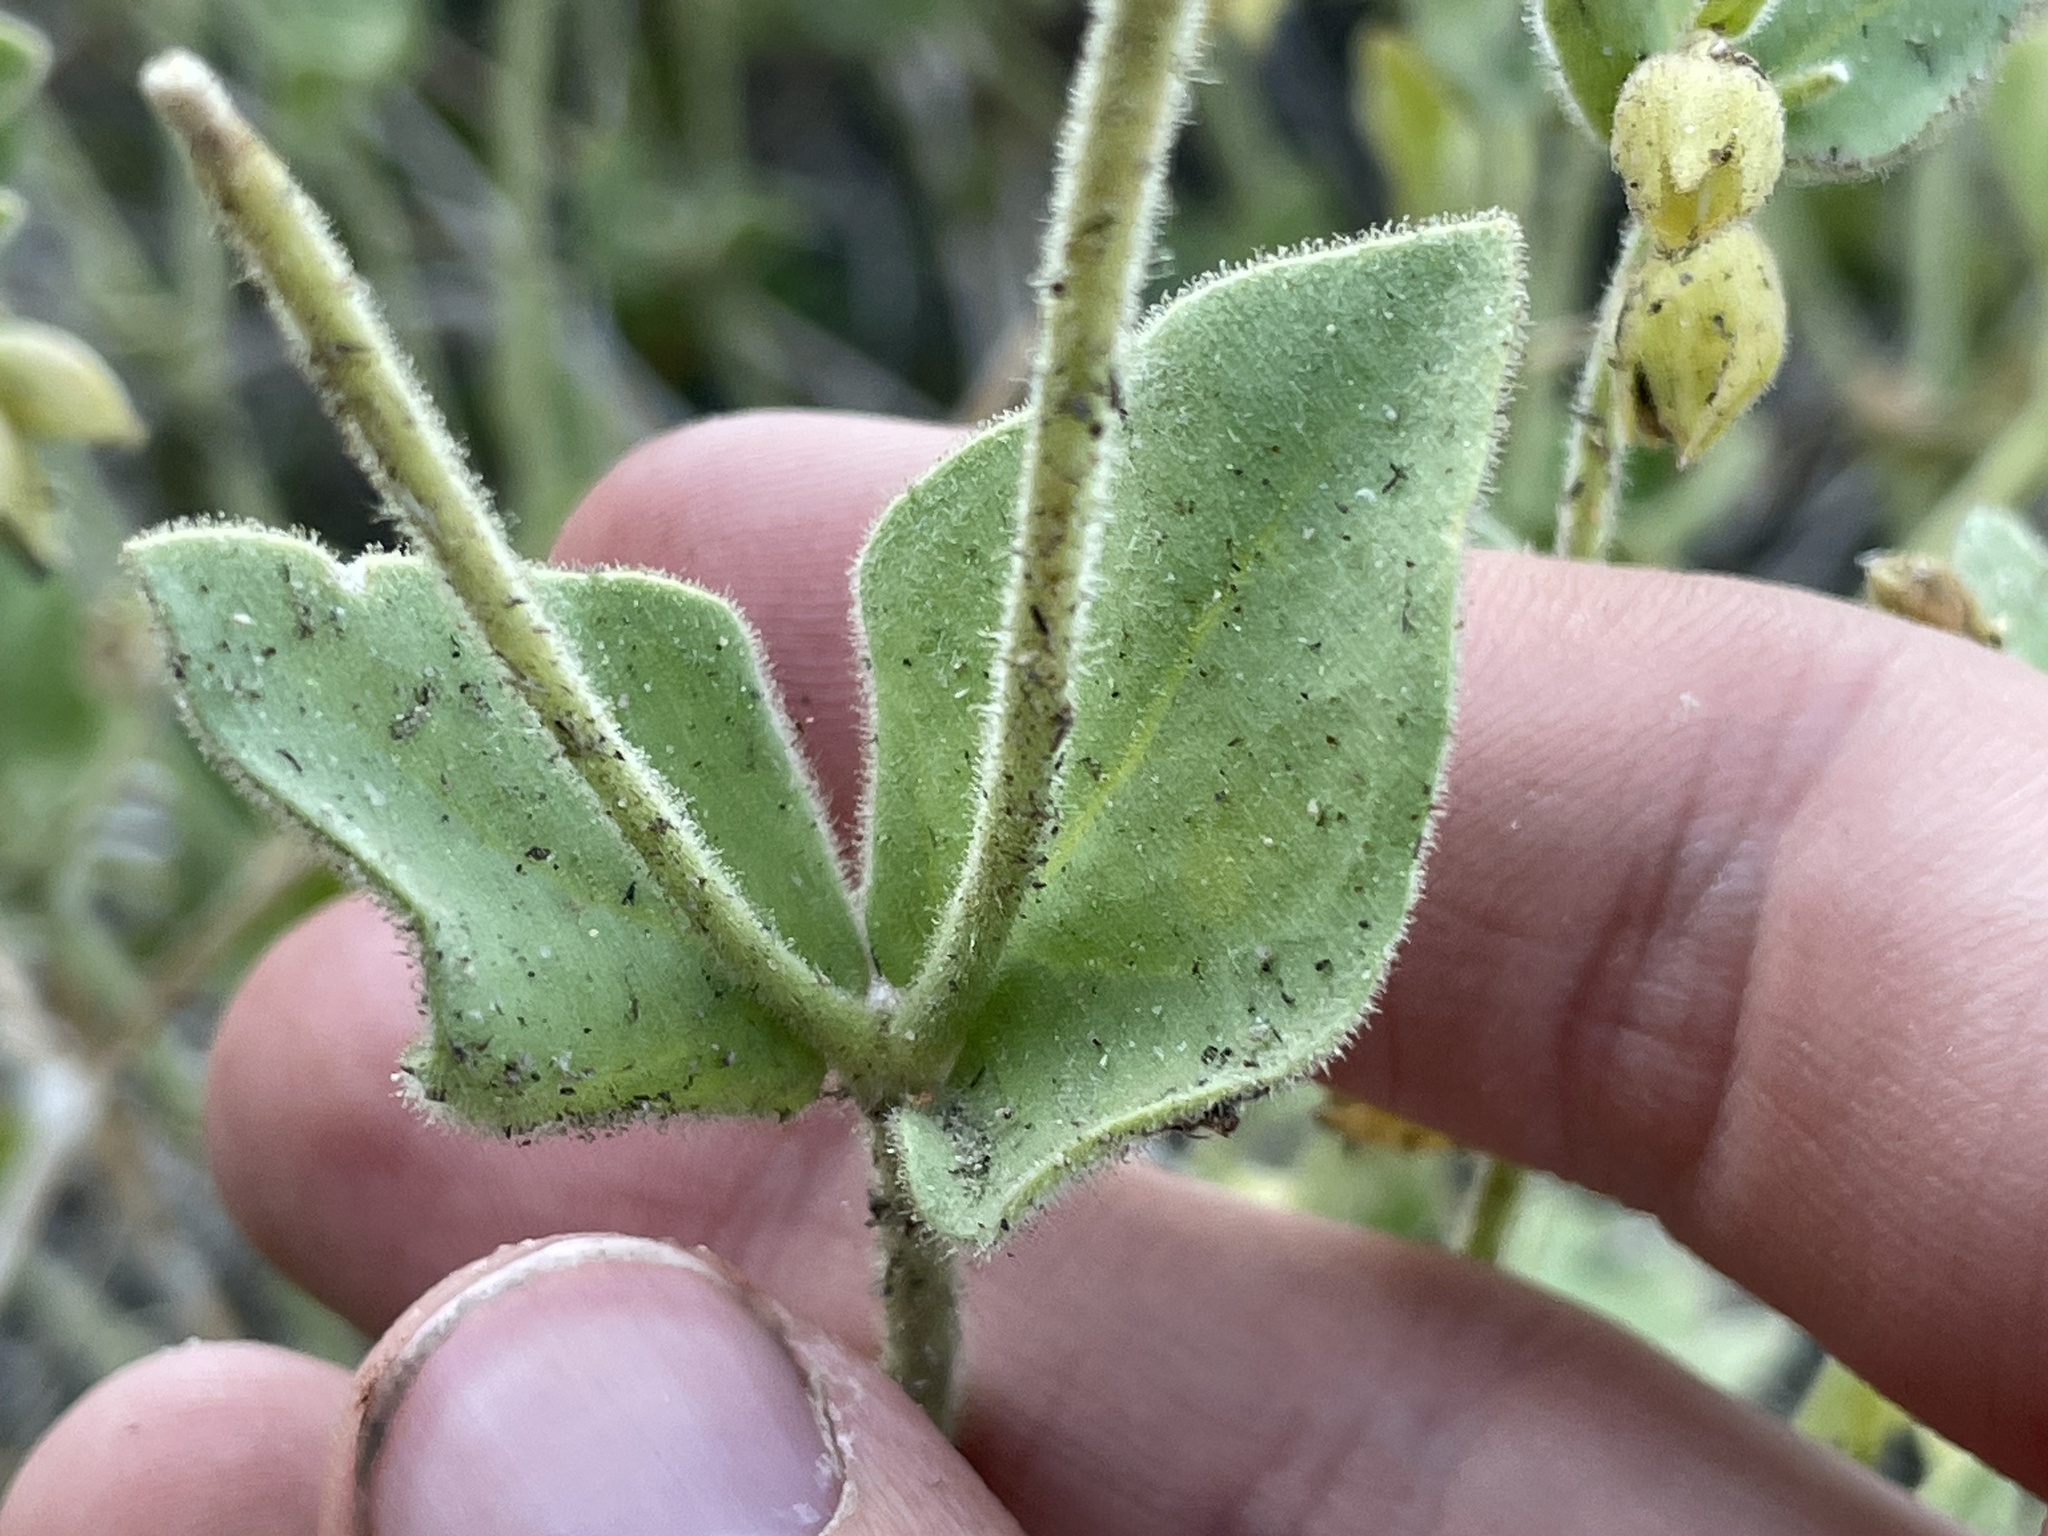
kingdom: Plantae
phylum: Tracheophyta
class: Magnoliopsida
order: Caryophyllales
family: Nyctaginaceae
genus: Mirabilis
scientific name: Mirabilis laevis
